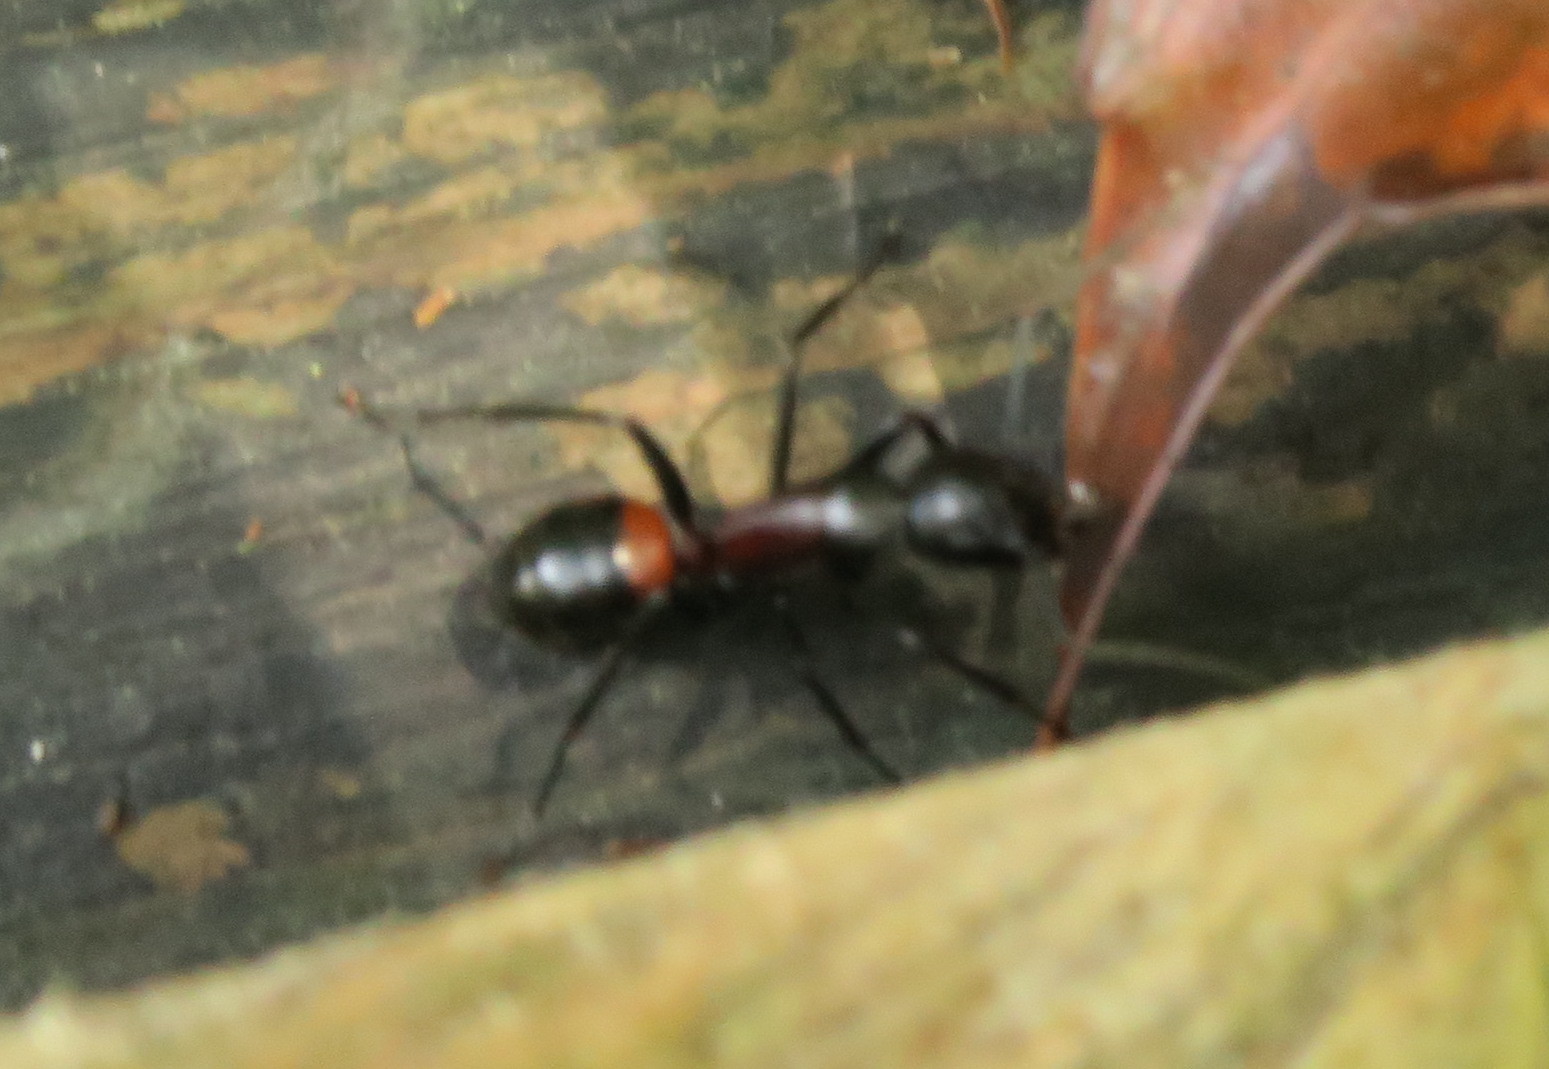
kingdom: Animalia
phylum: Arthropoda
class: Insecta
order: Hymenoptera
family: Formicidae
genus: Camponotus
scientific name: Camponotus hemichlaena
